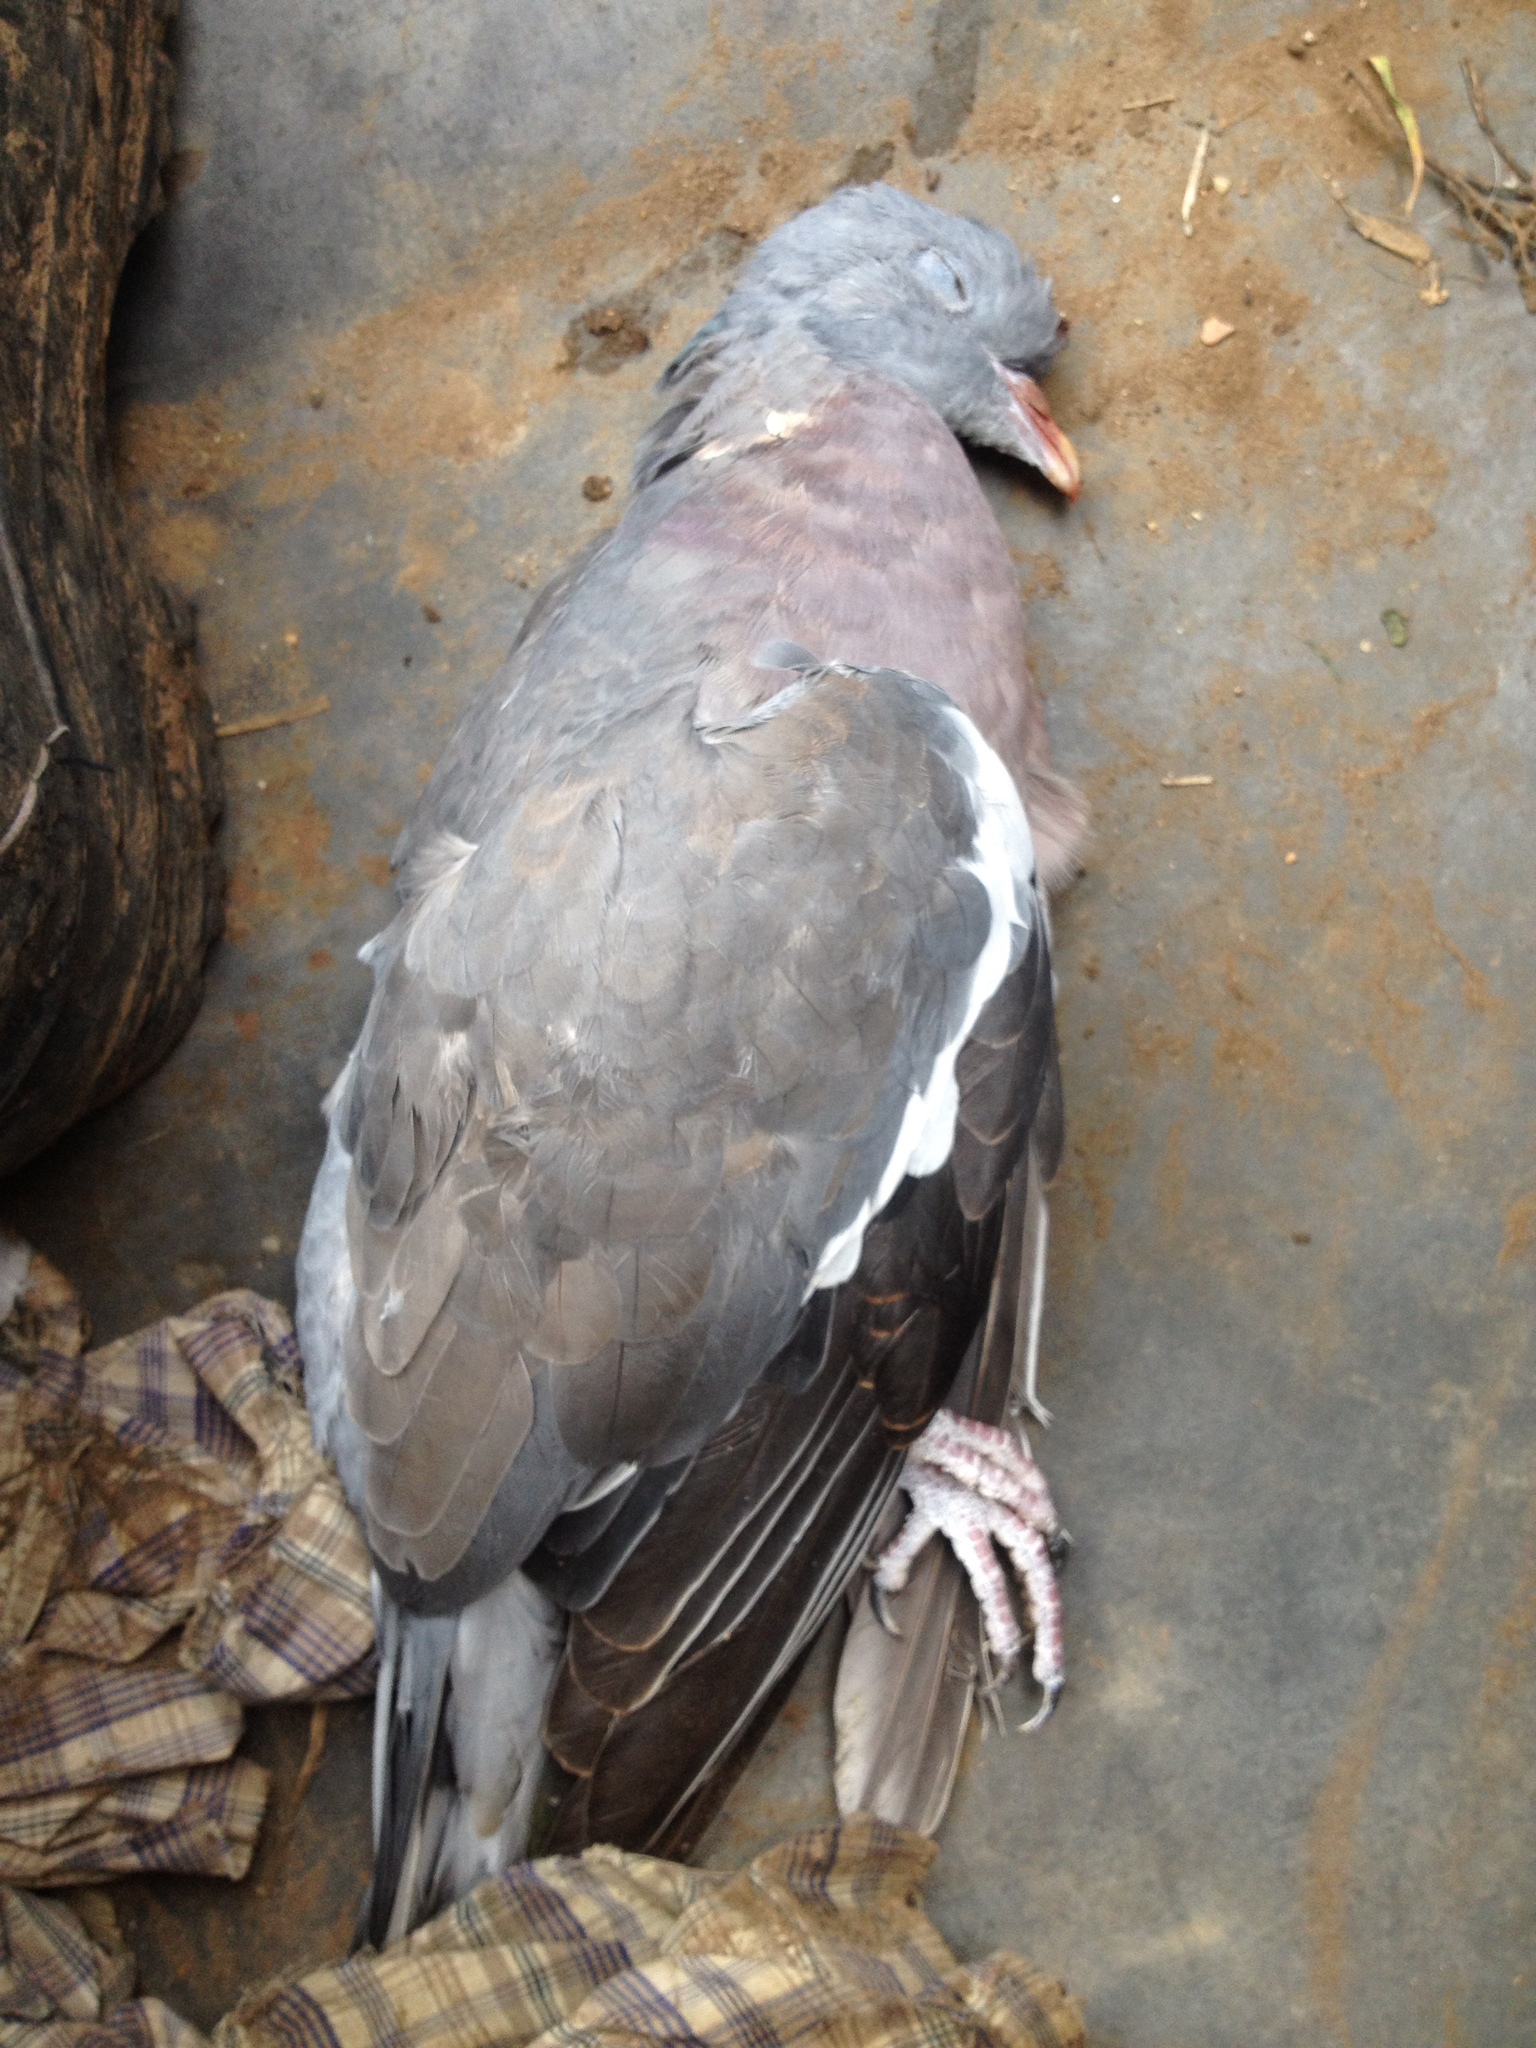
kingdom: Animalia
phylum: Chordata
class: Aves
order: Columbiformes
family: Columbidae
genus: Columba
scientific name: Columba palumbus
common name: Common wood pigeon
